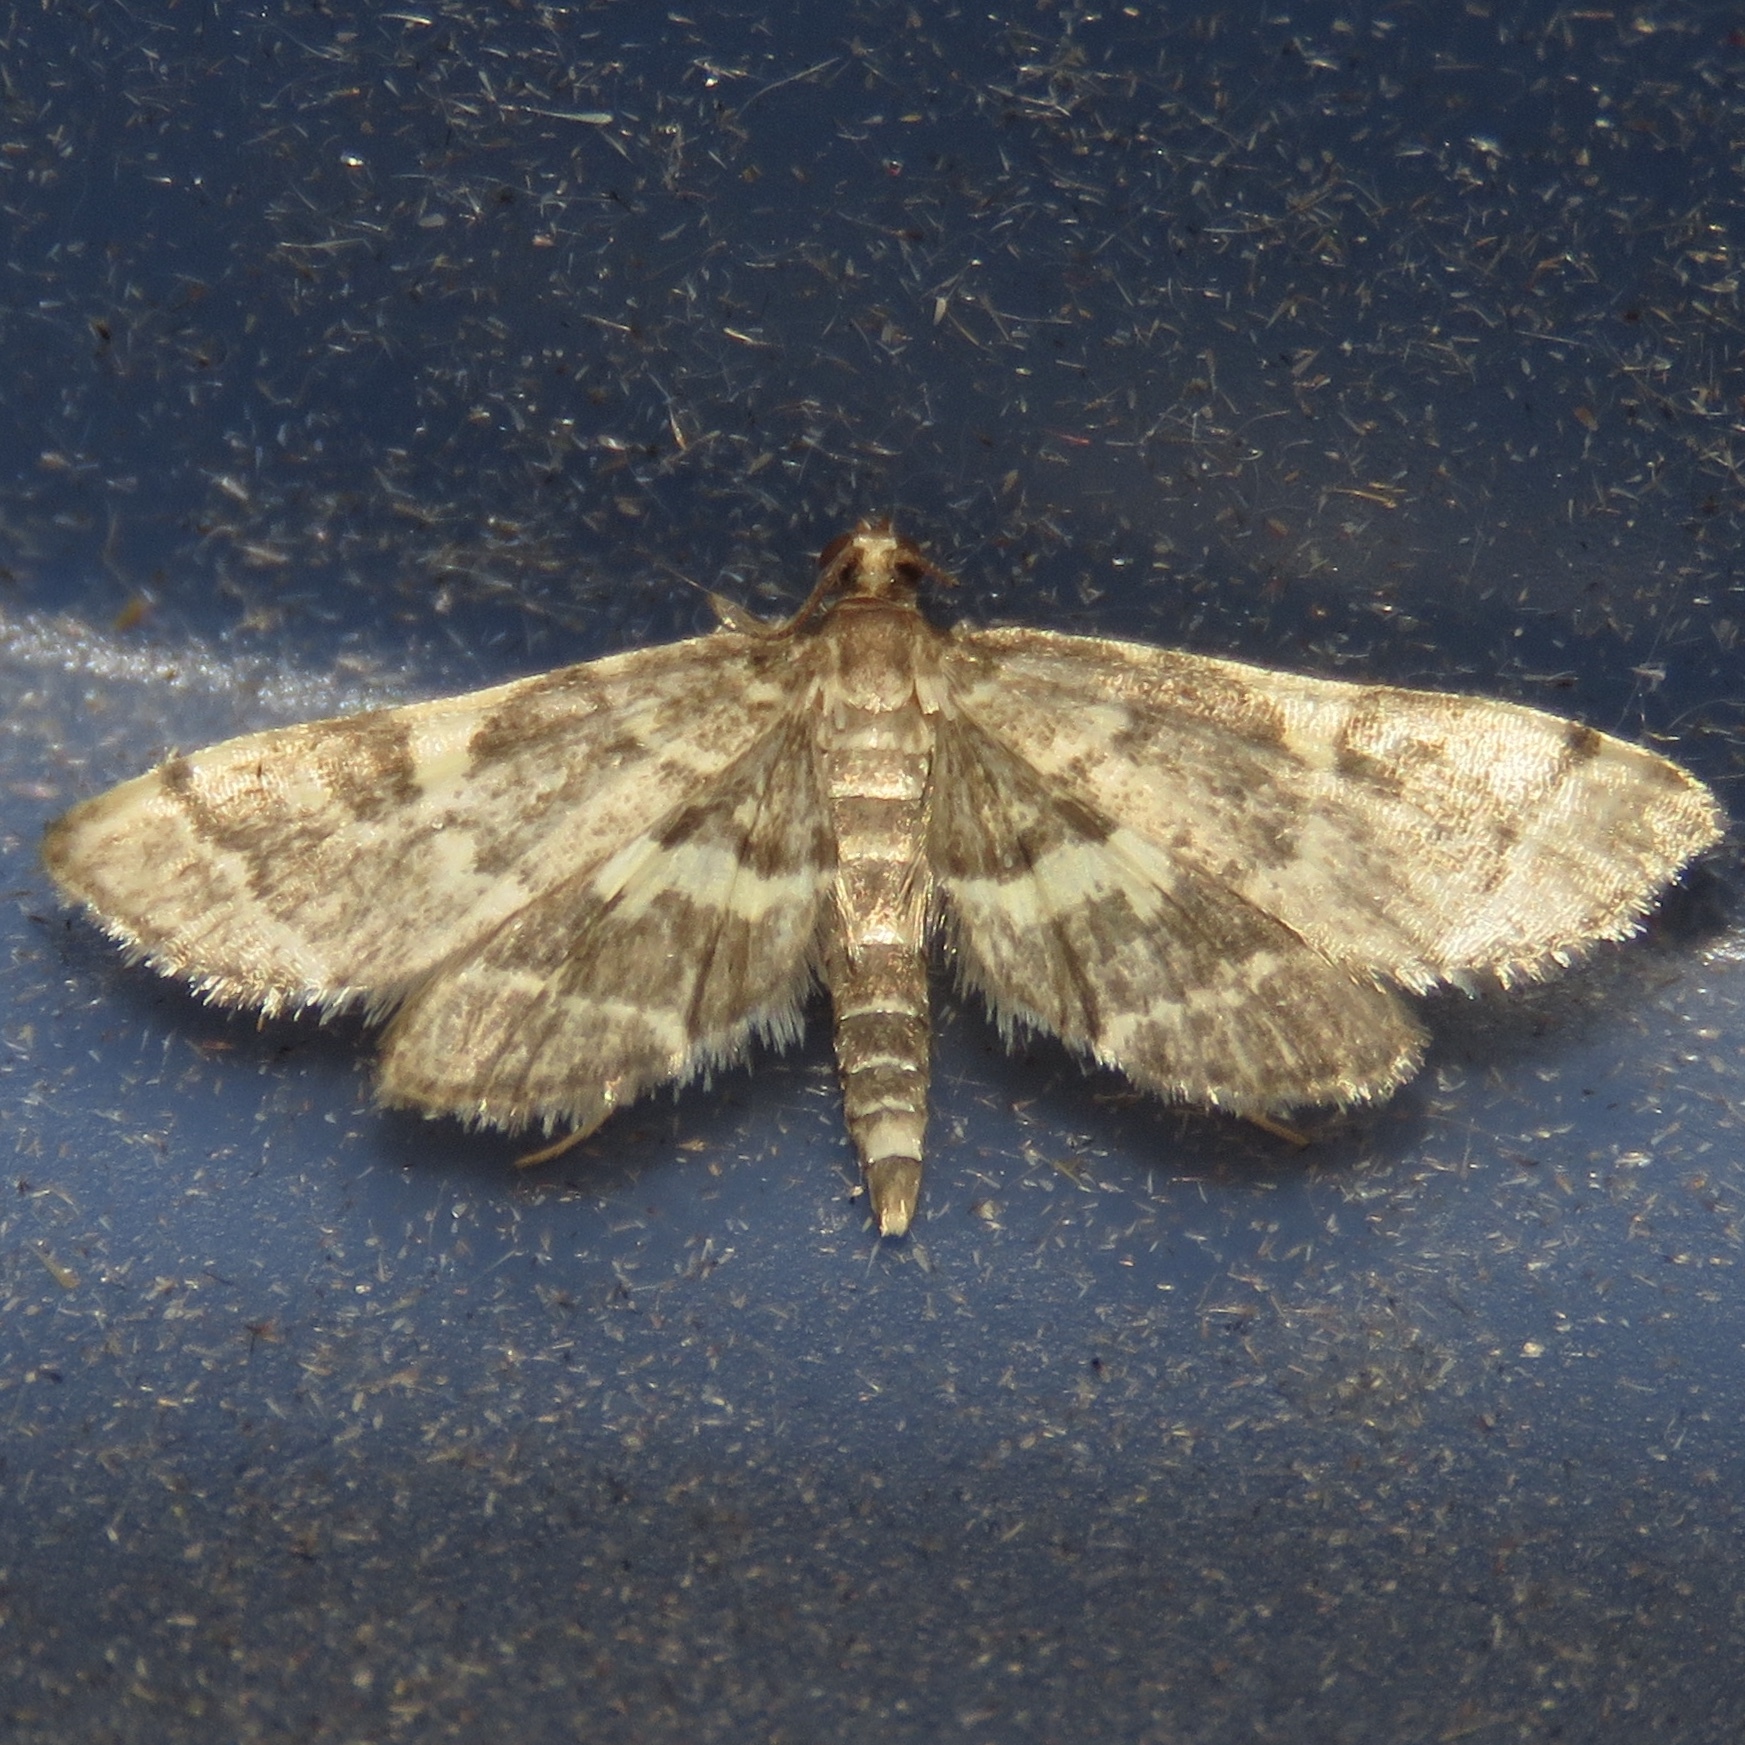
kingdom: Animalia
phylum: Arthropoda
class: Insecta
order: Lepidoptera
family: Crambidae
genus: Anageshna
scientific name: Anageshna primordialis
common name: Yellow-spotted webworm moth
